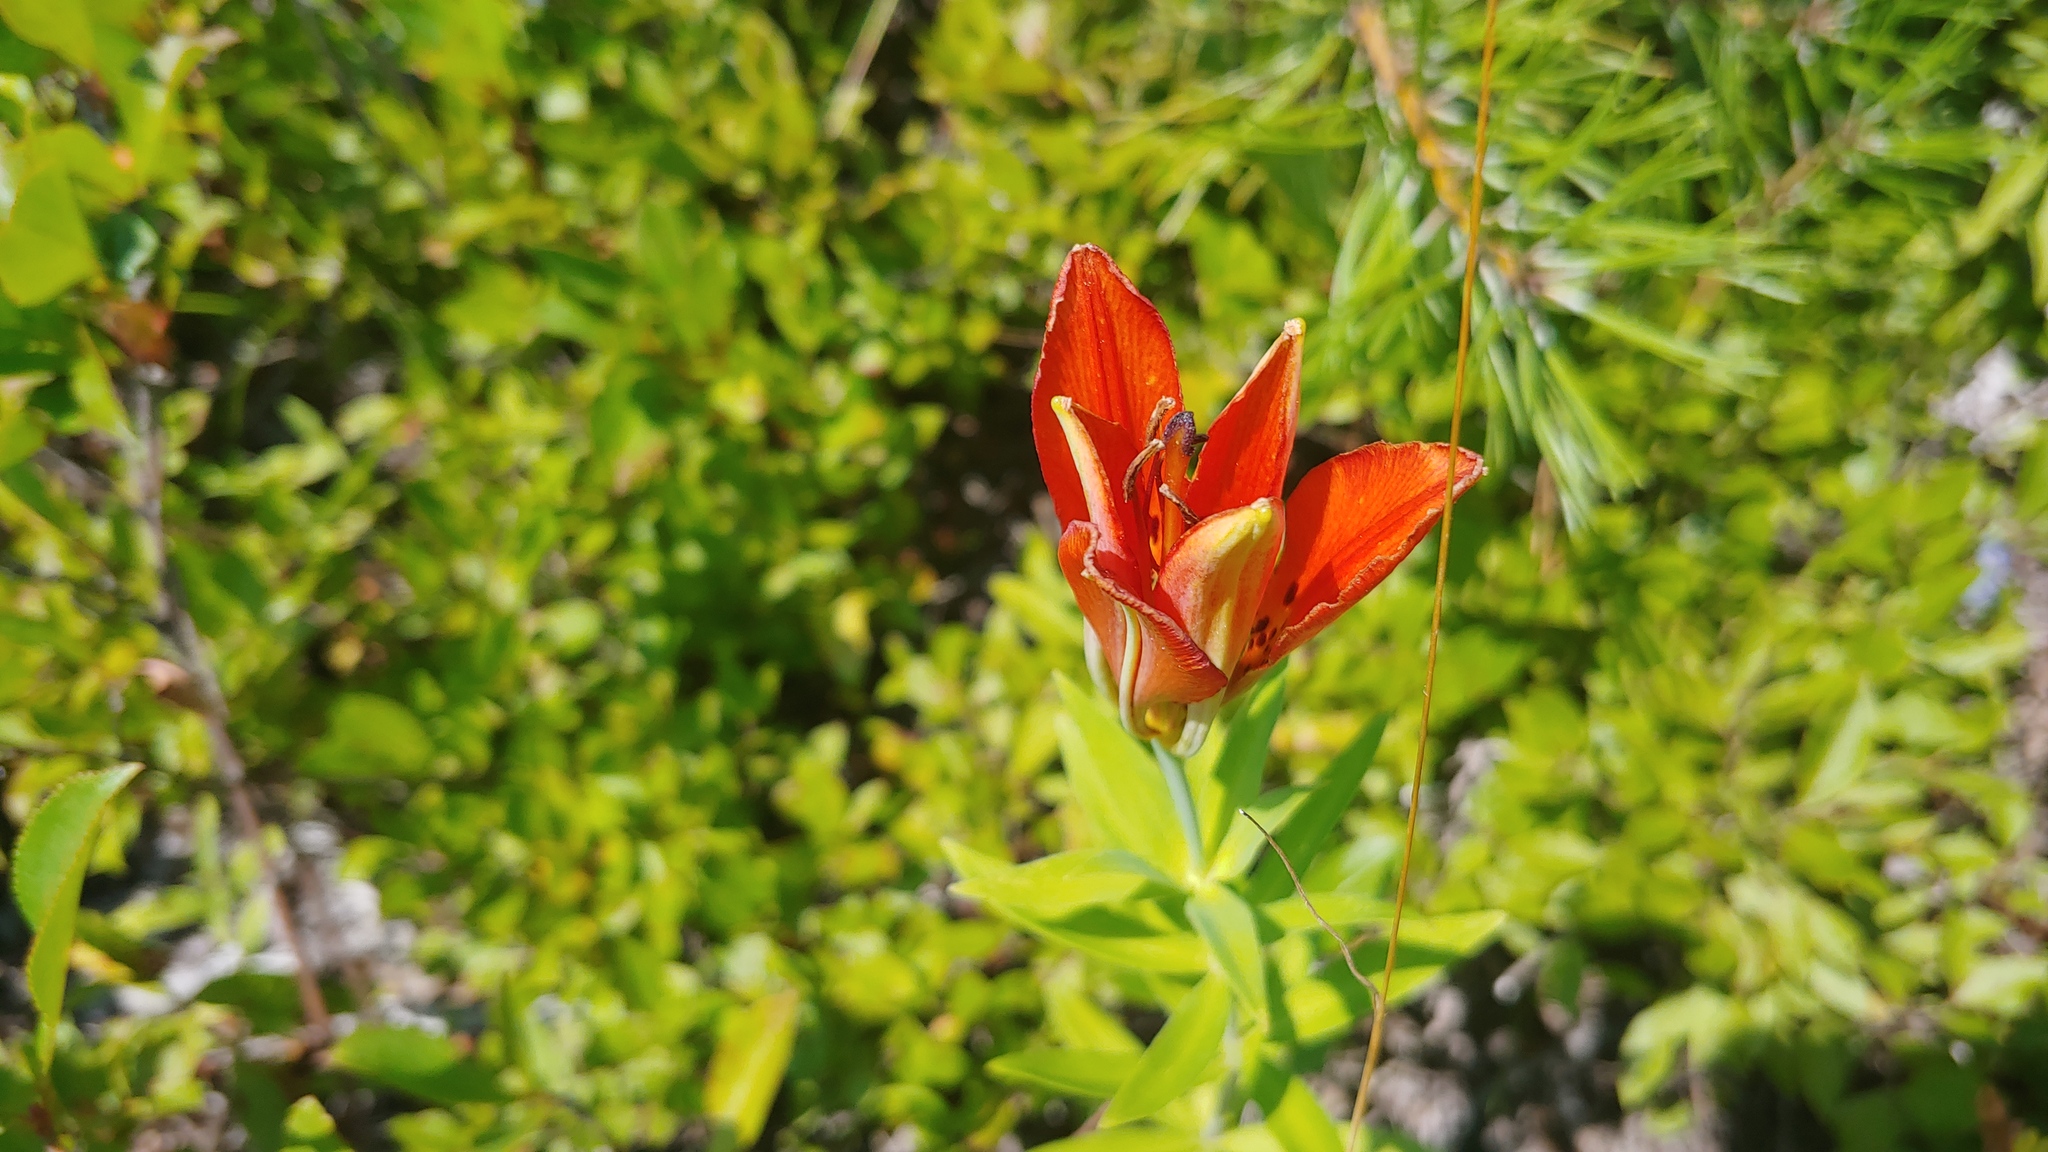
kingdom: Plantae
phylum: Tracheophyta
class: Liliopsida
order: Liliales
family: Liliaceae
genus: Lilium
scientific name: Lilium philadelphicum
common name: Red lily
